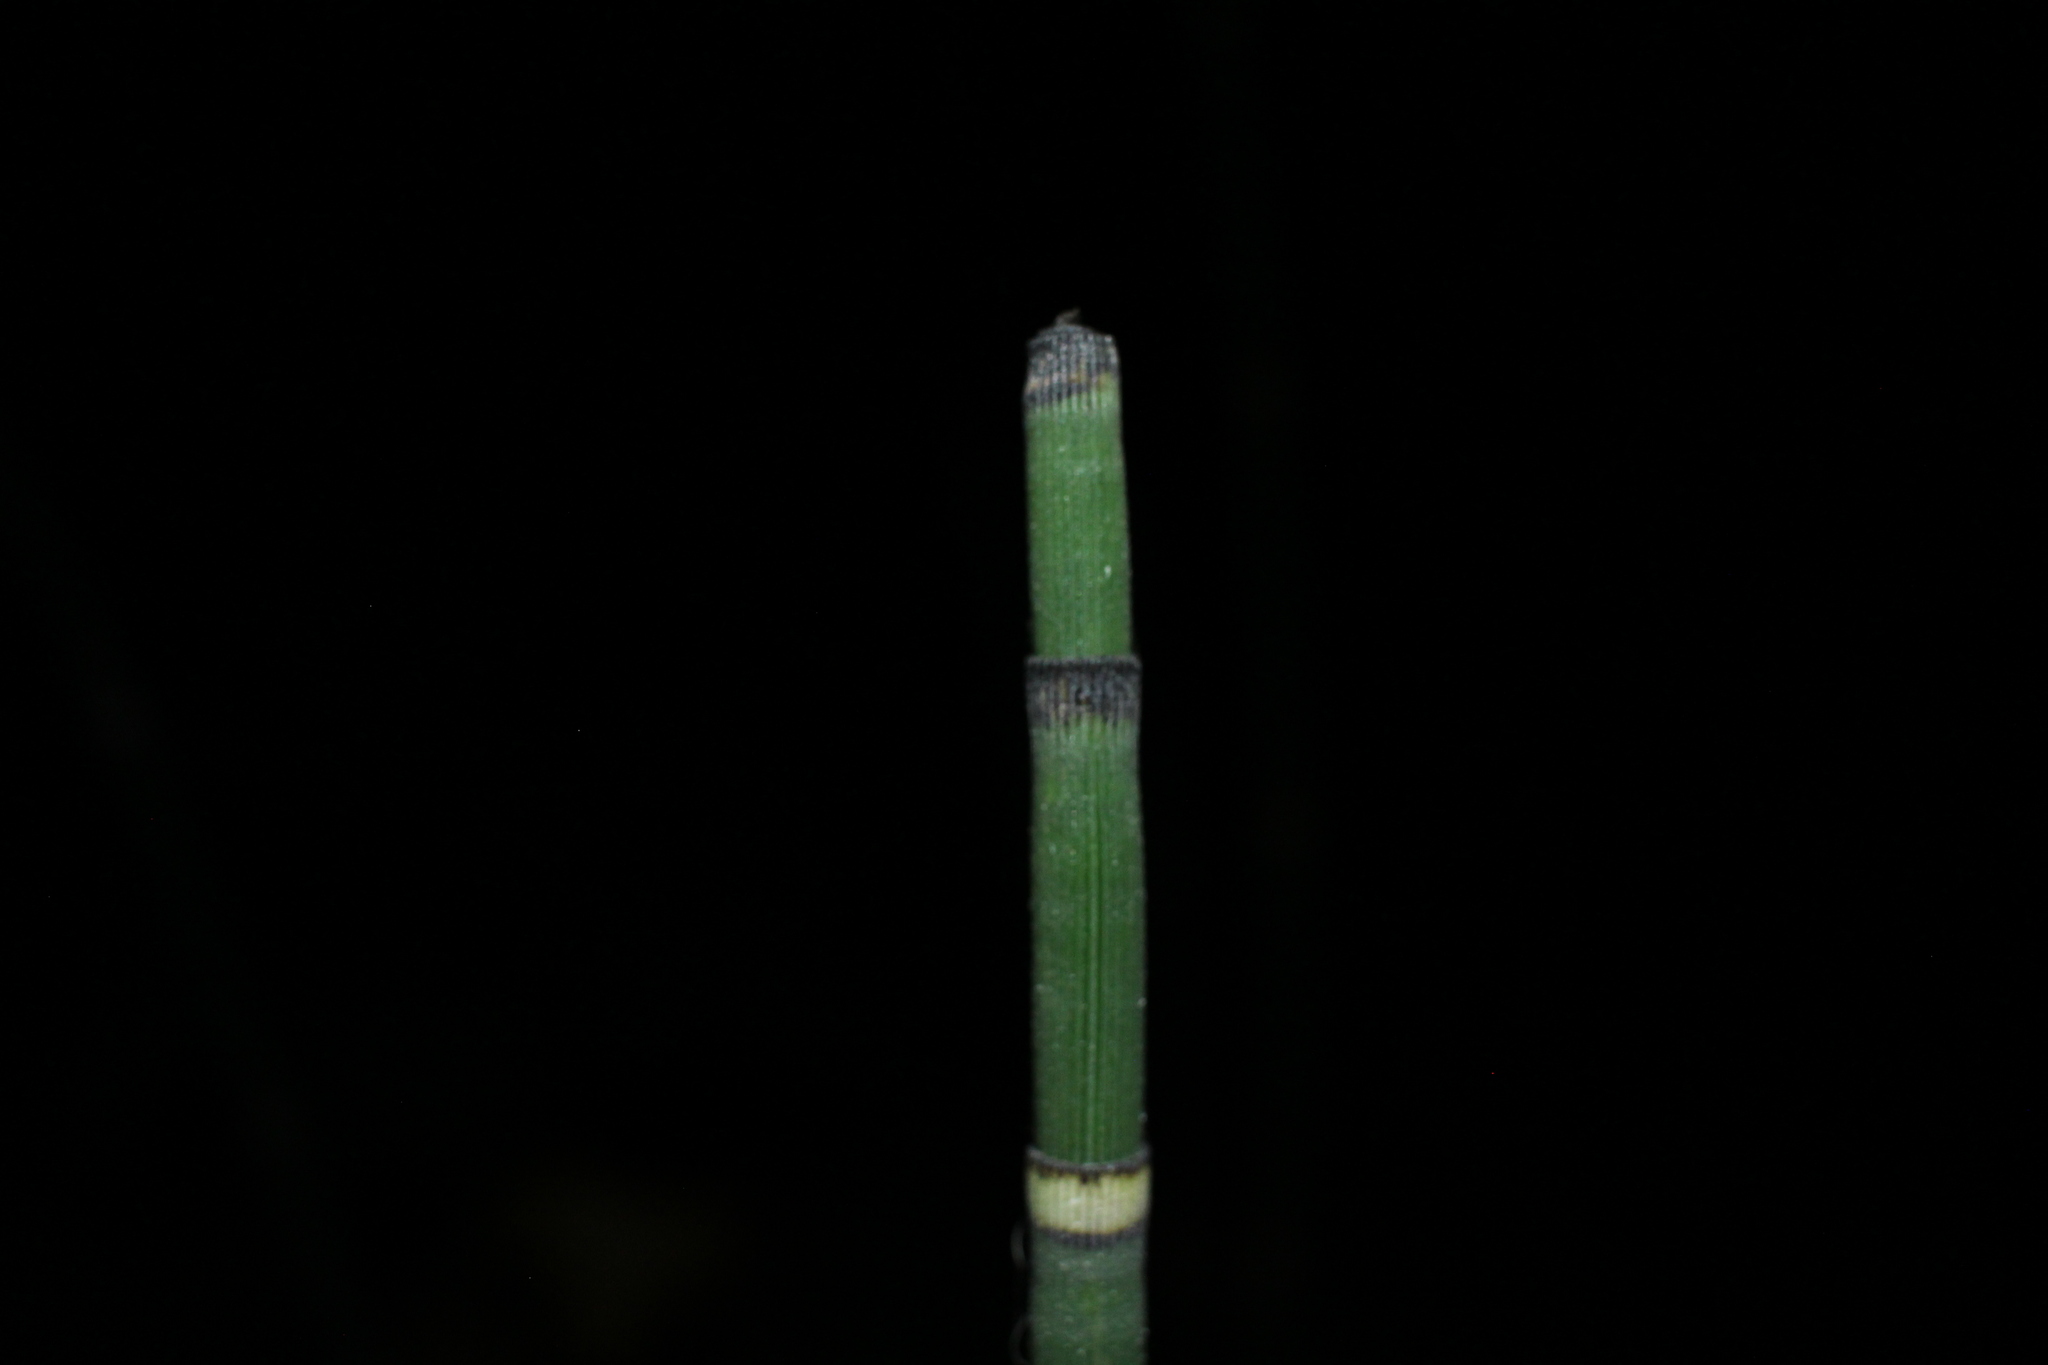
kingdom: Plantae
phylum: Tracheophyta
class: Polypodiopsida
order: Equisetales
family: Equisetaceae
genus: Equisetum
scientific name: Equisetum praealtum
